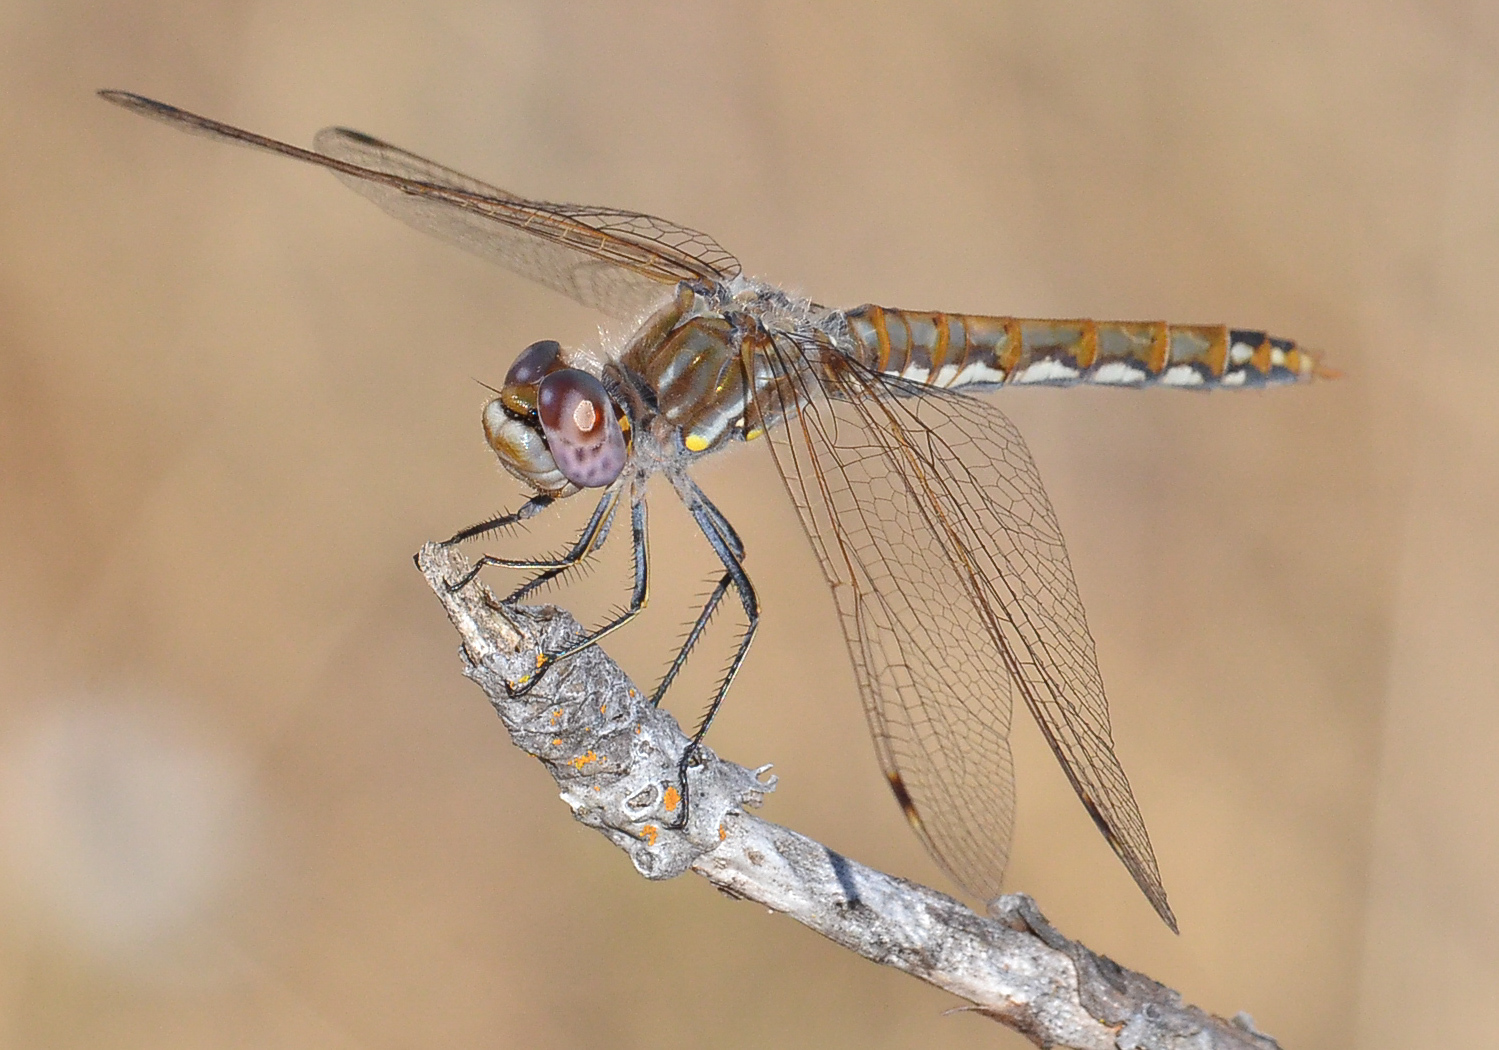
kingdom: Animalia
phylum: Arthropoda
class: Insecta
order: Odonata
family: Libellulidae
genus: Sympetrum
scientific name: Sympetrum corruptum
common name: Variegated meadowhawk
